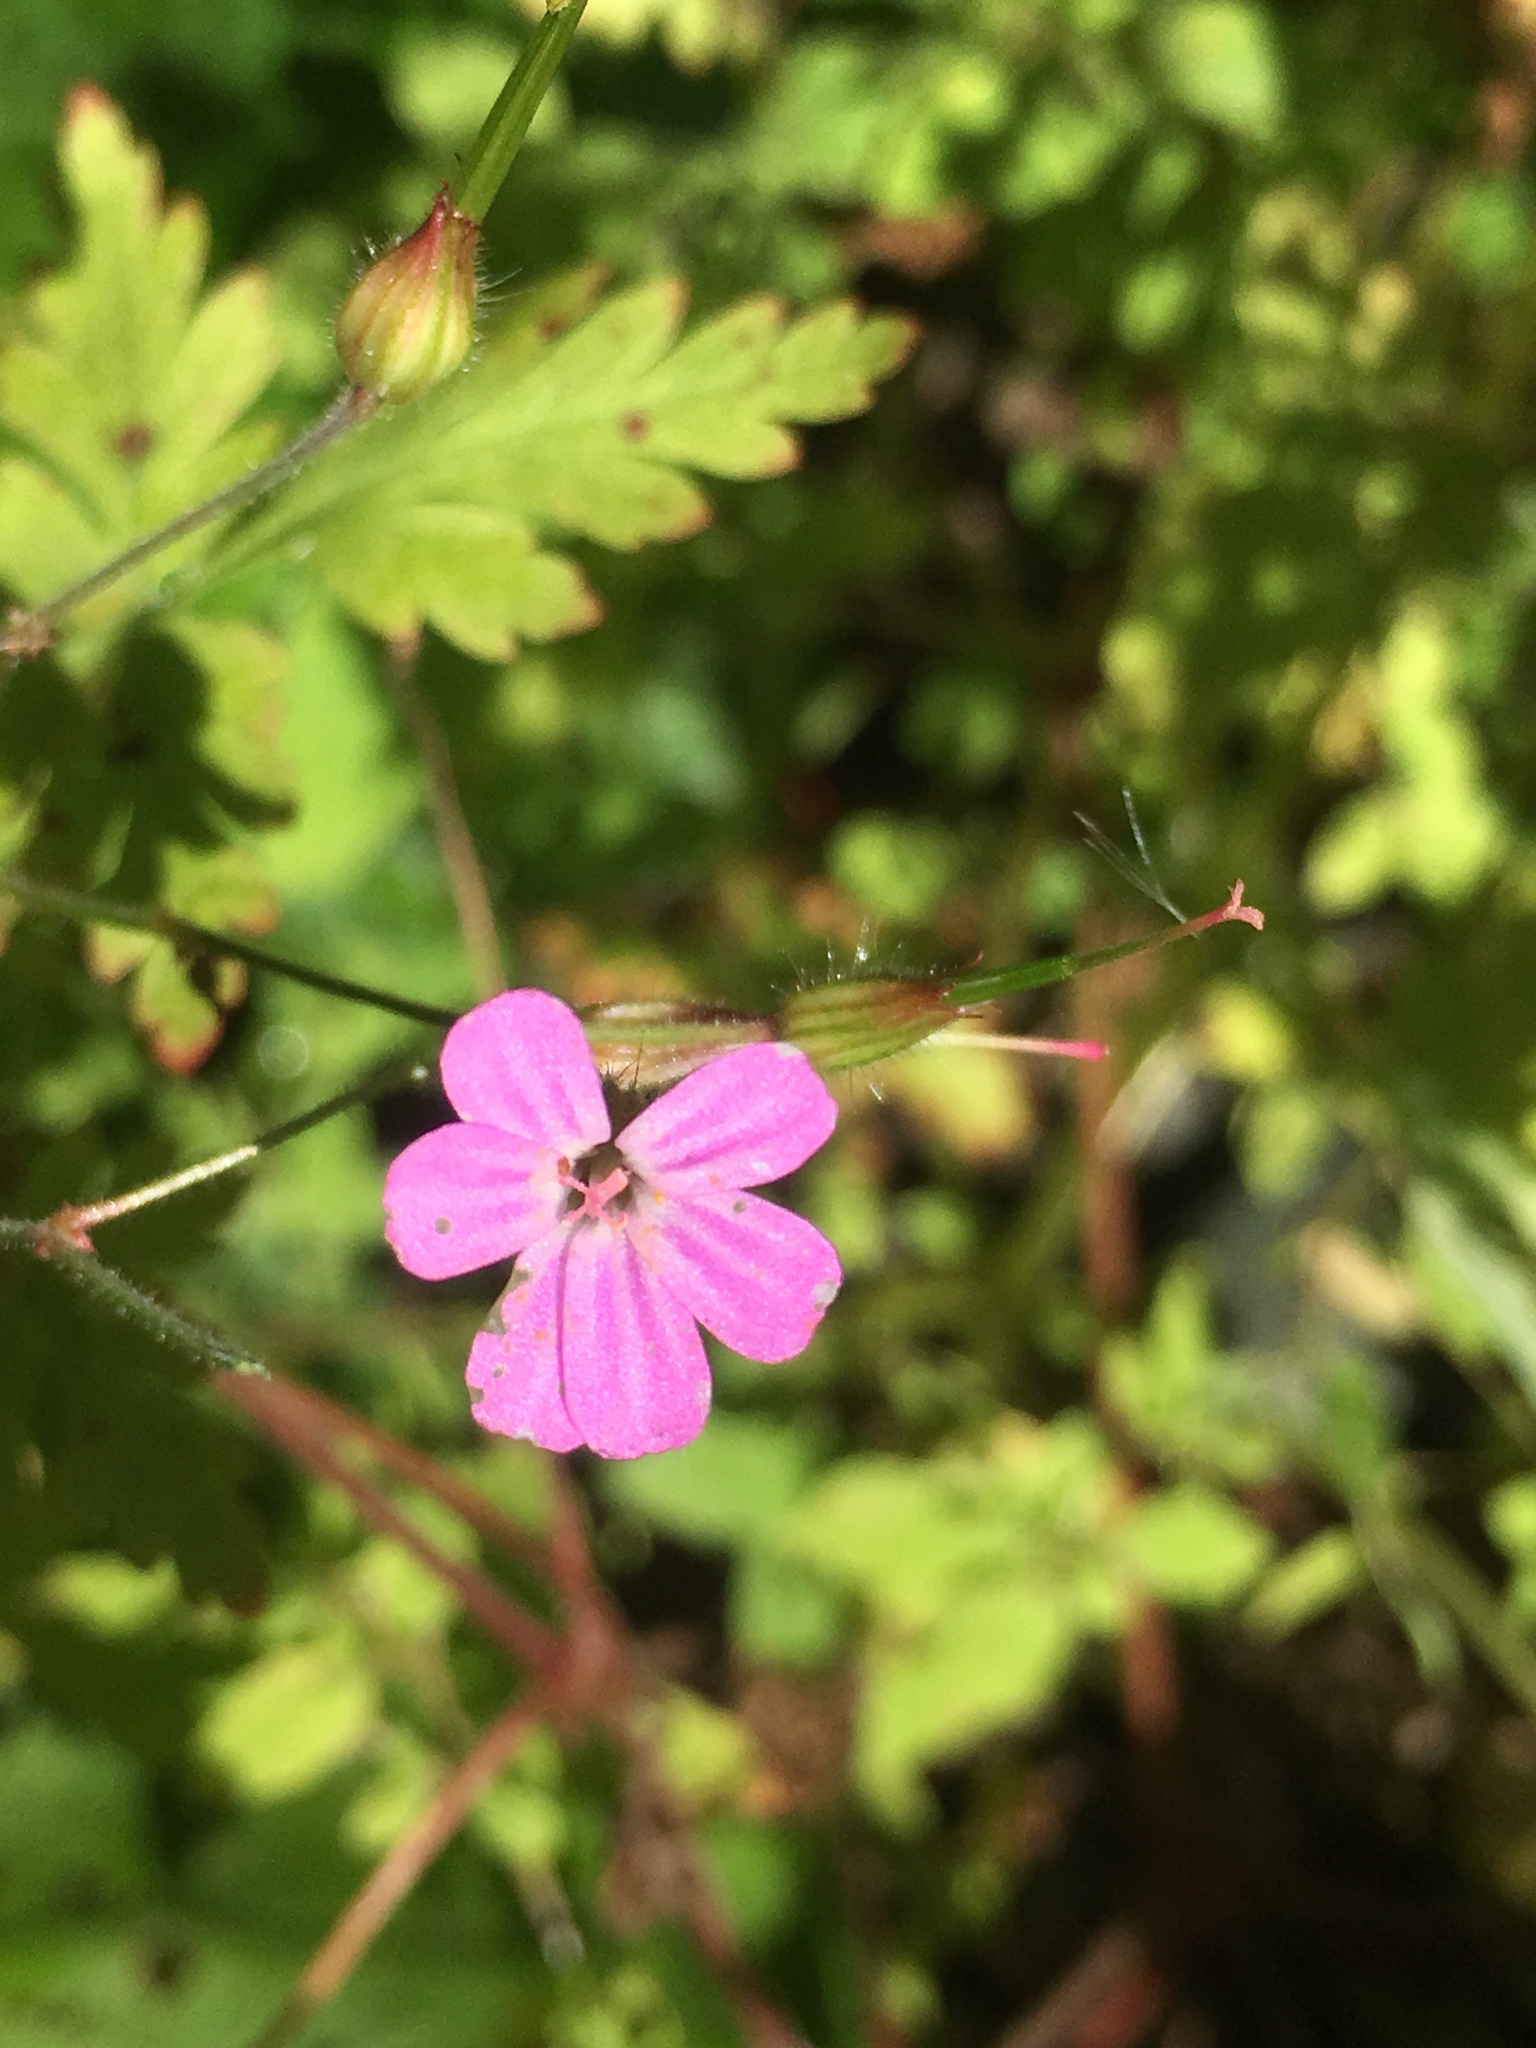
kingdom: Plantae
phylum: Tracheophyta
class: Magnoliopsida
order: Geraniales
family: Geraniaceae
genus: Geranium
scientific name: Geranium robertianum
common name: Herb-robert
